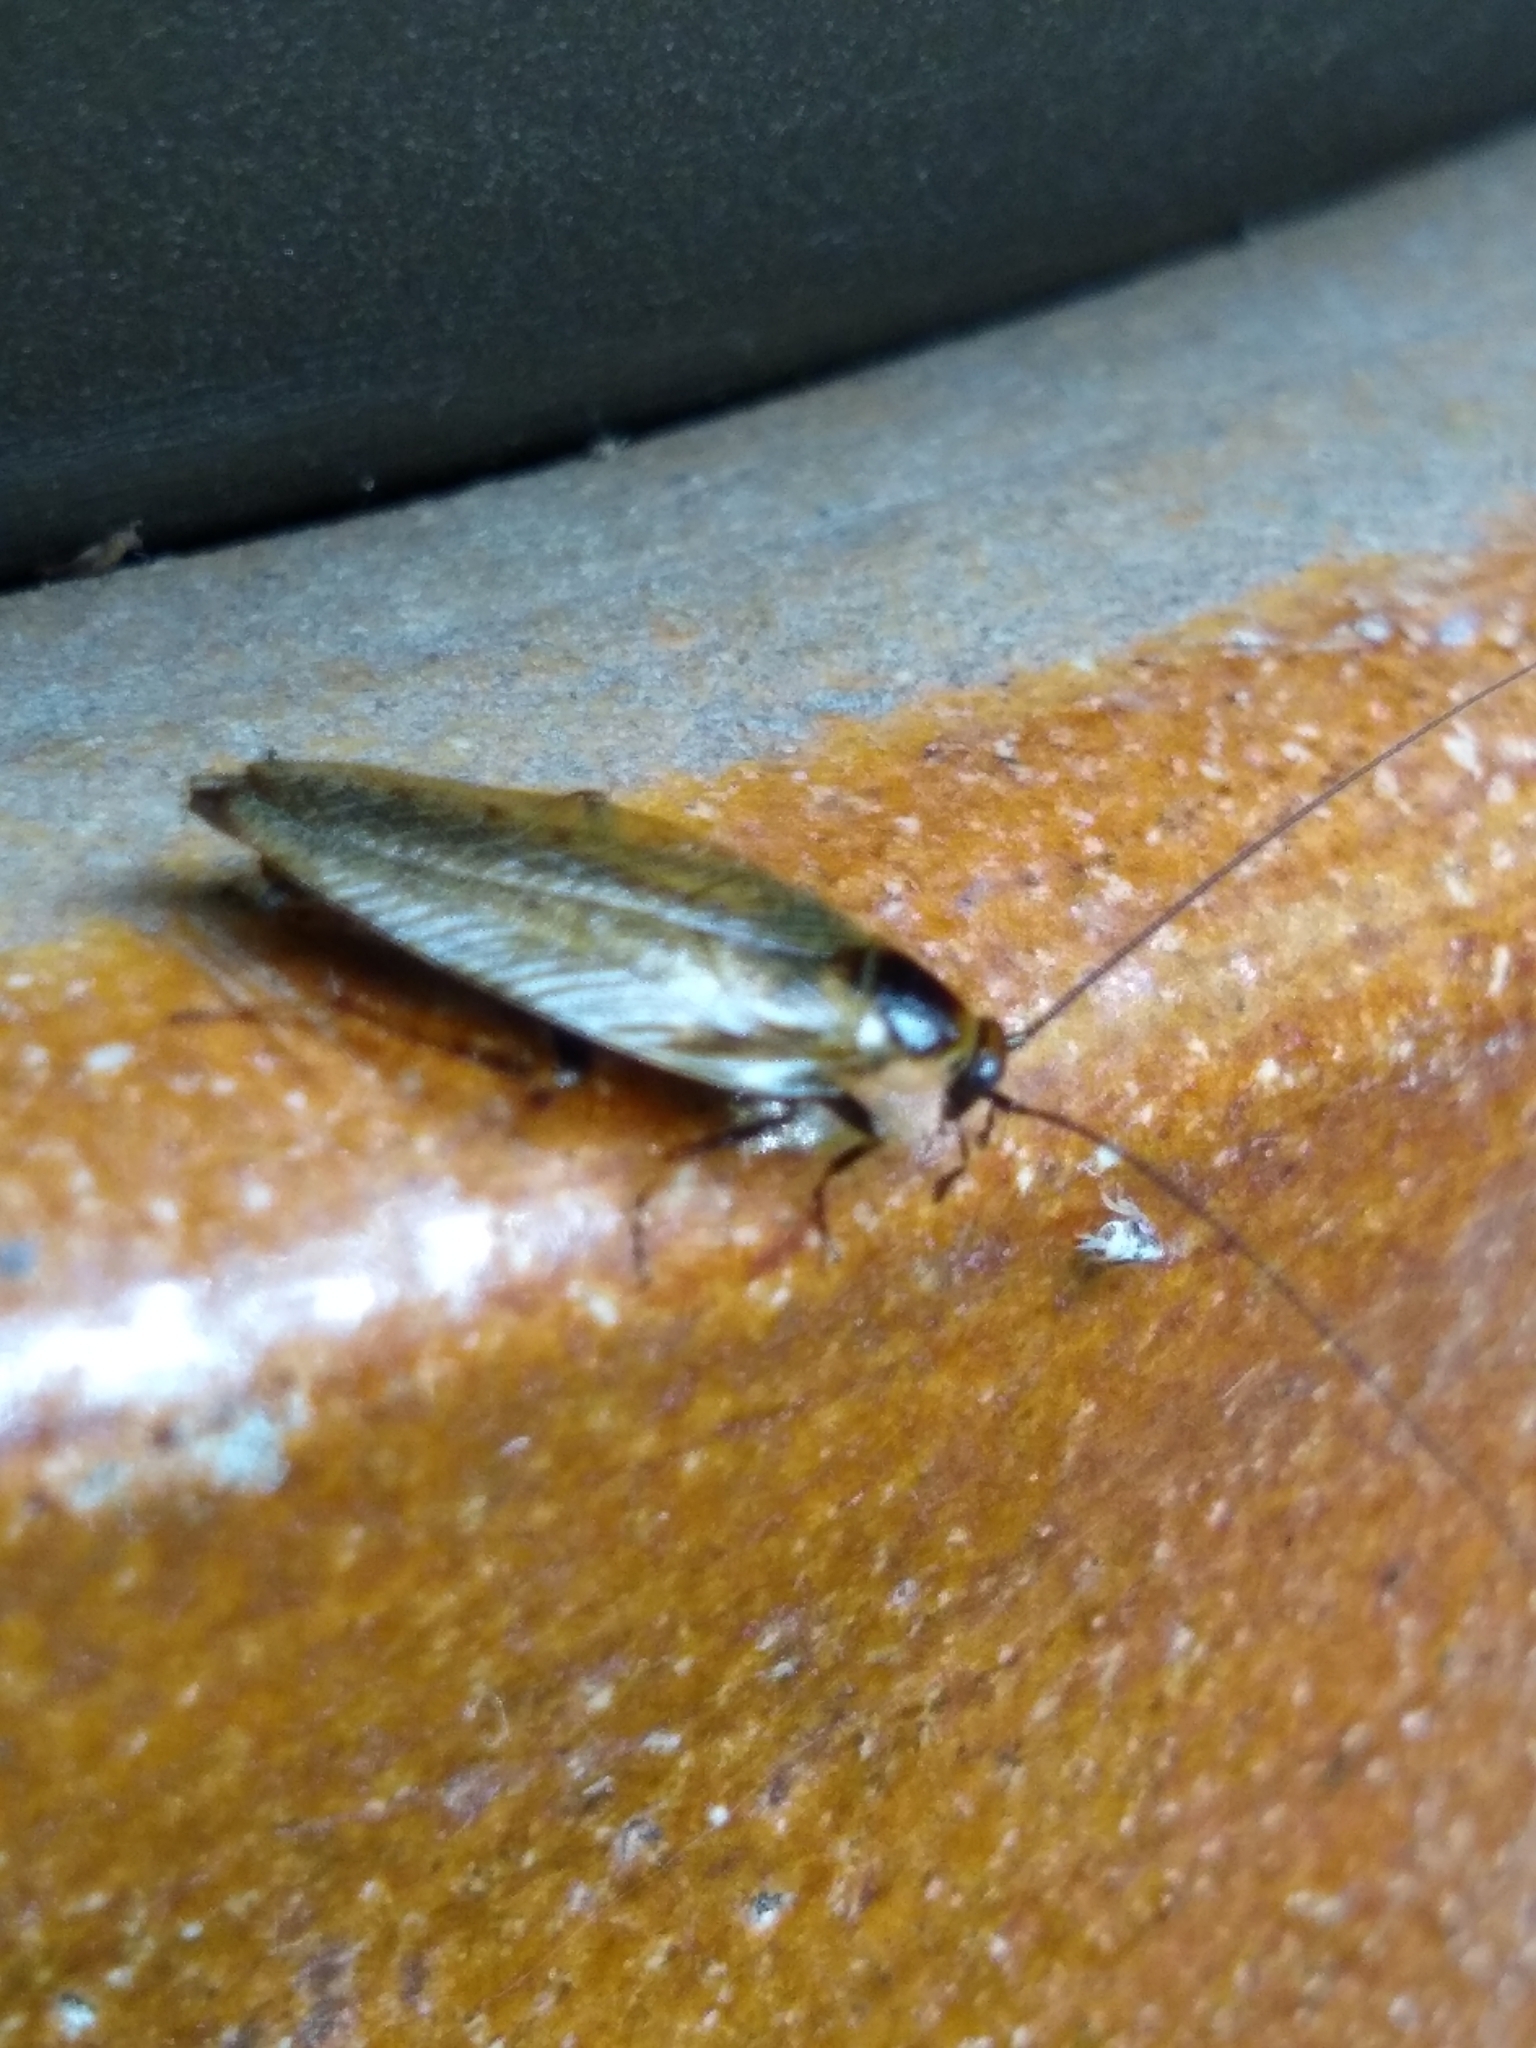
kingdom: Animalia
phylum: Arthropoda
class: Insecta
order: Blattodea
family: Ectobiidae
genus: Ectobius
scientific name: Ectobius lapponicus
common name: Dusky cockroach
